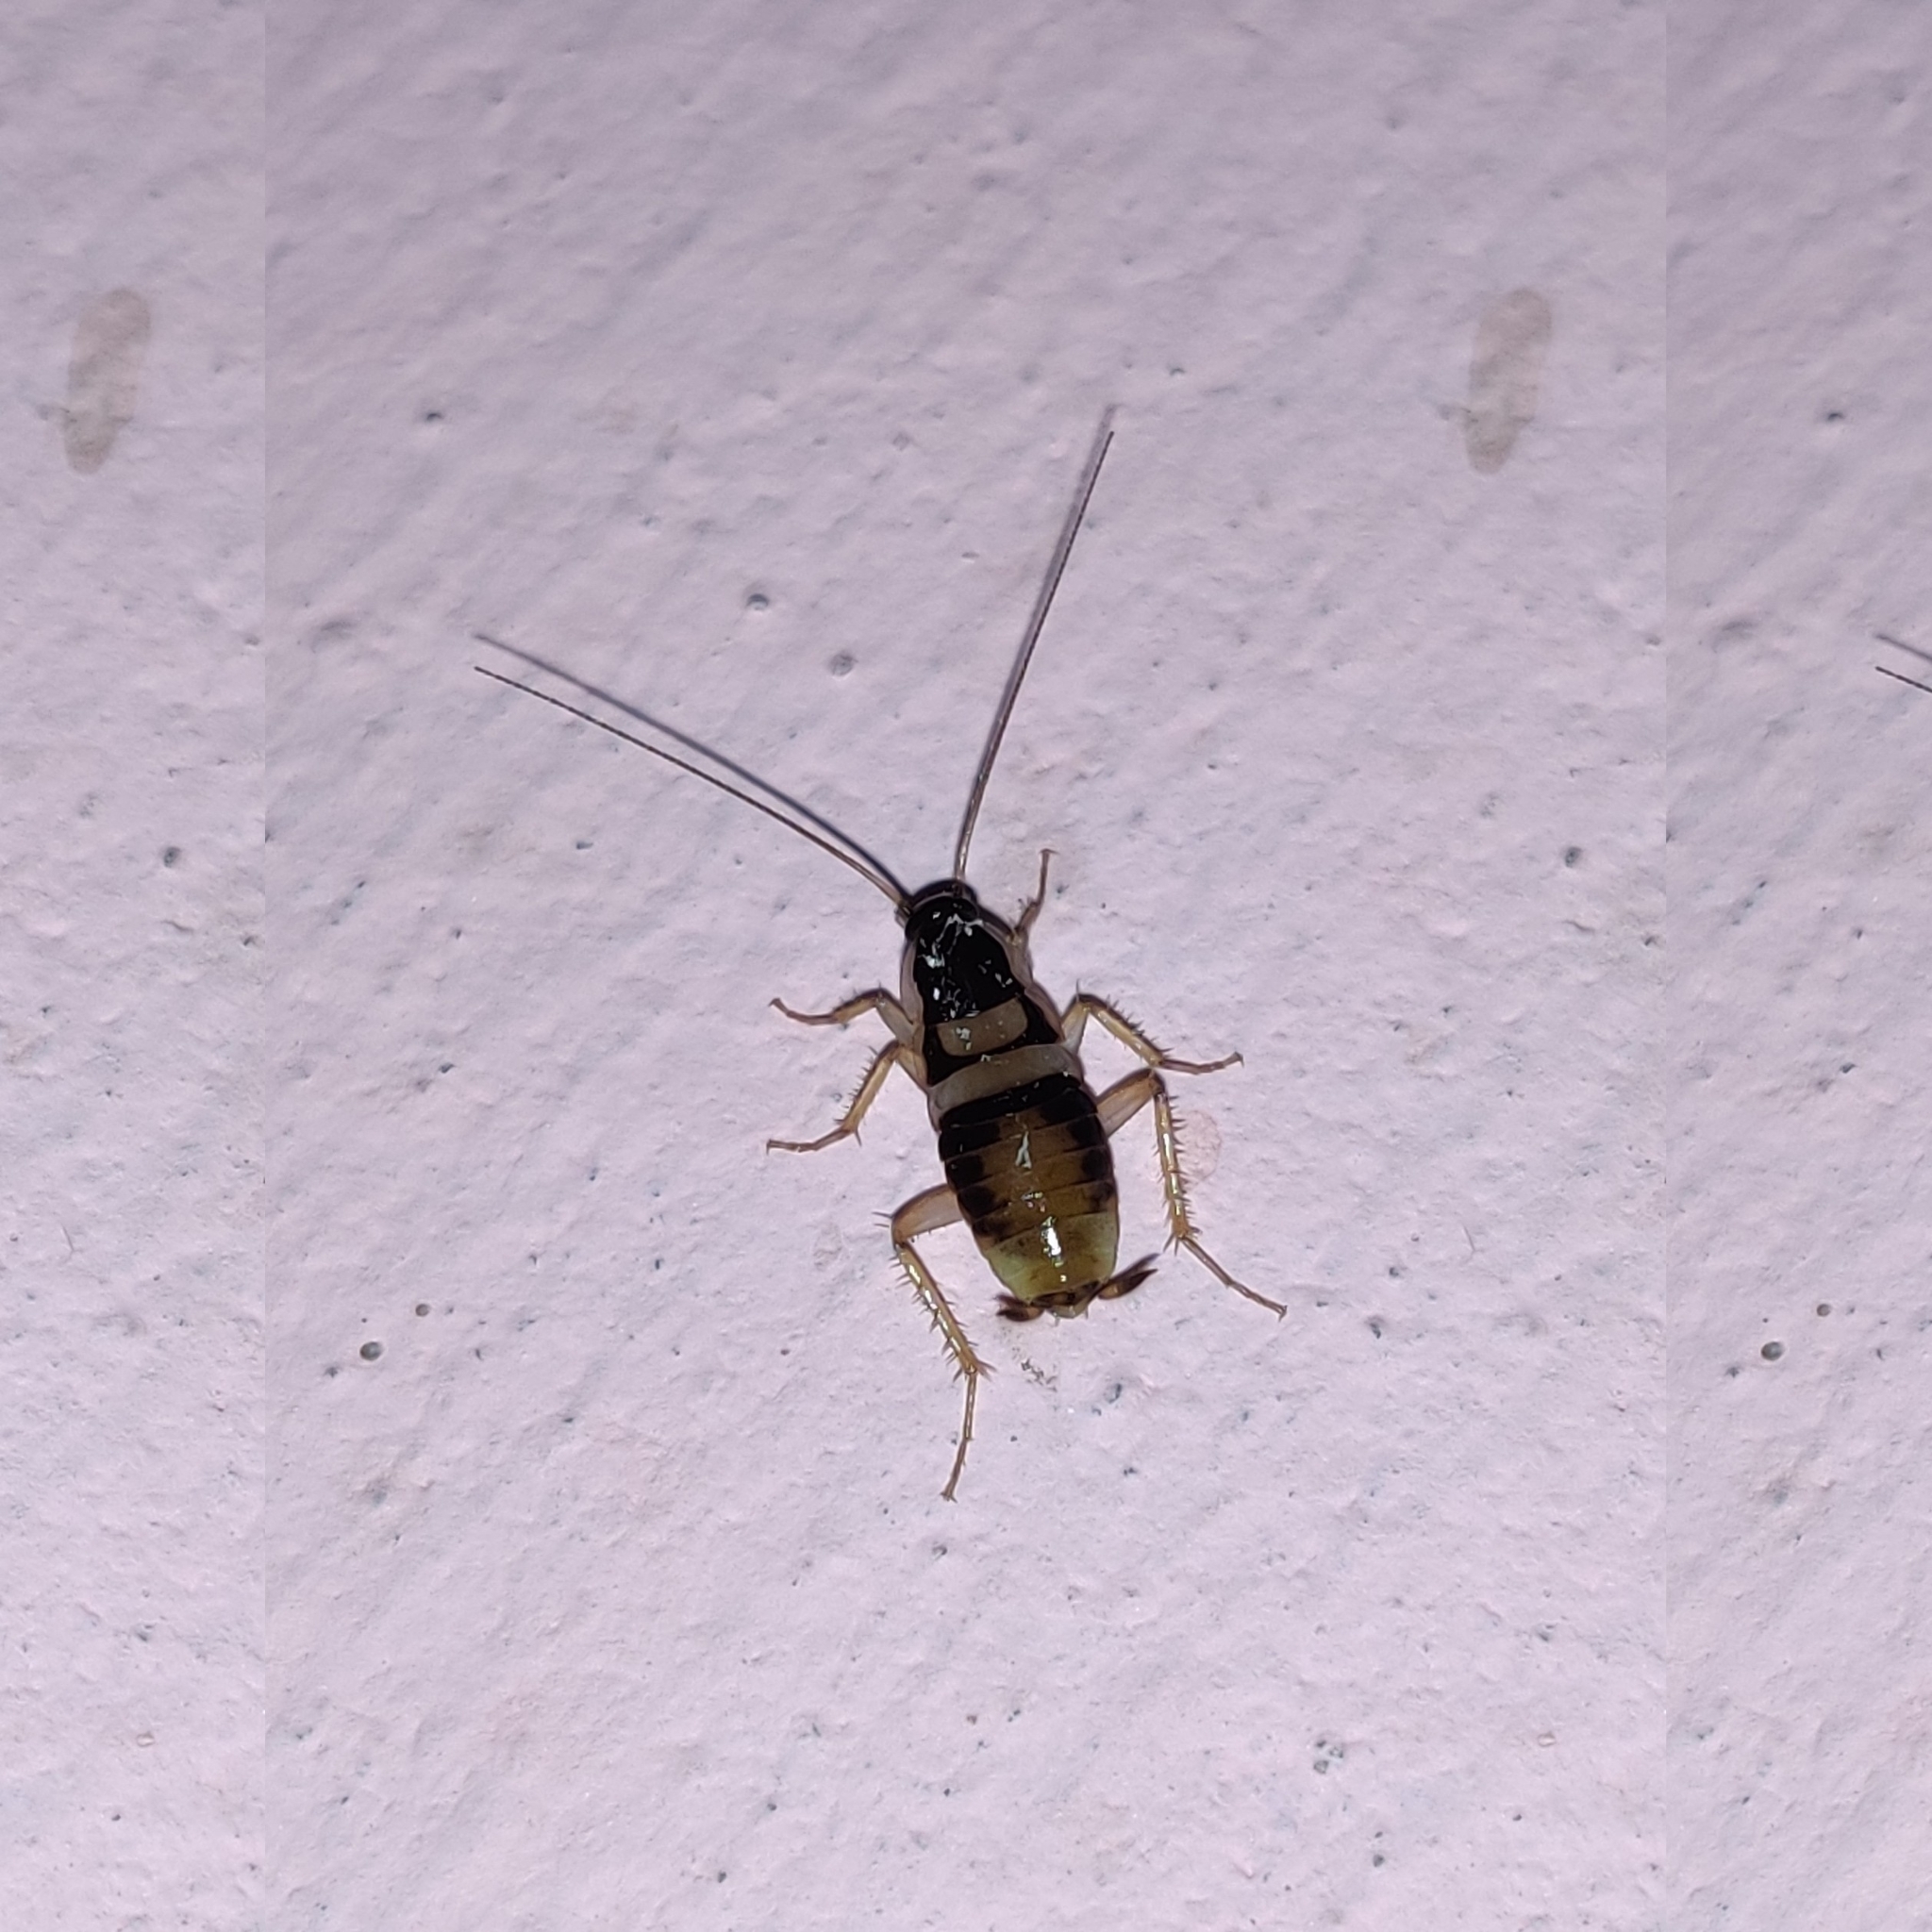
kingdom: Animalia
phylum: Arthropoda
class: Insecta
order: Blattodea
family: Ectobiidae
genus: Supella
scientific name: Supella longipalpa
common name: Brown-banded cockroach
